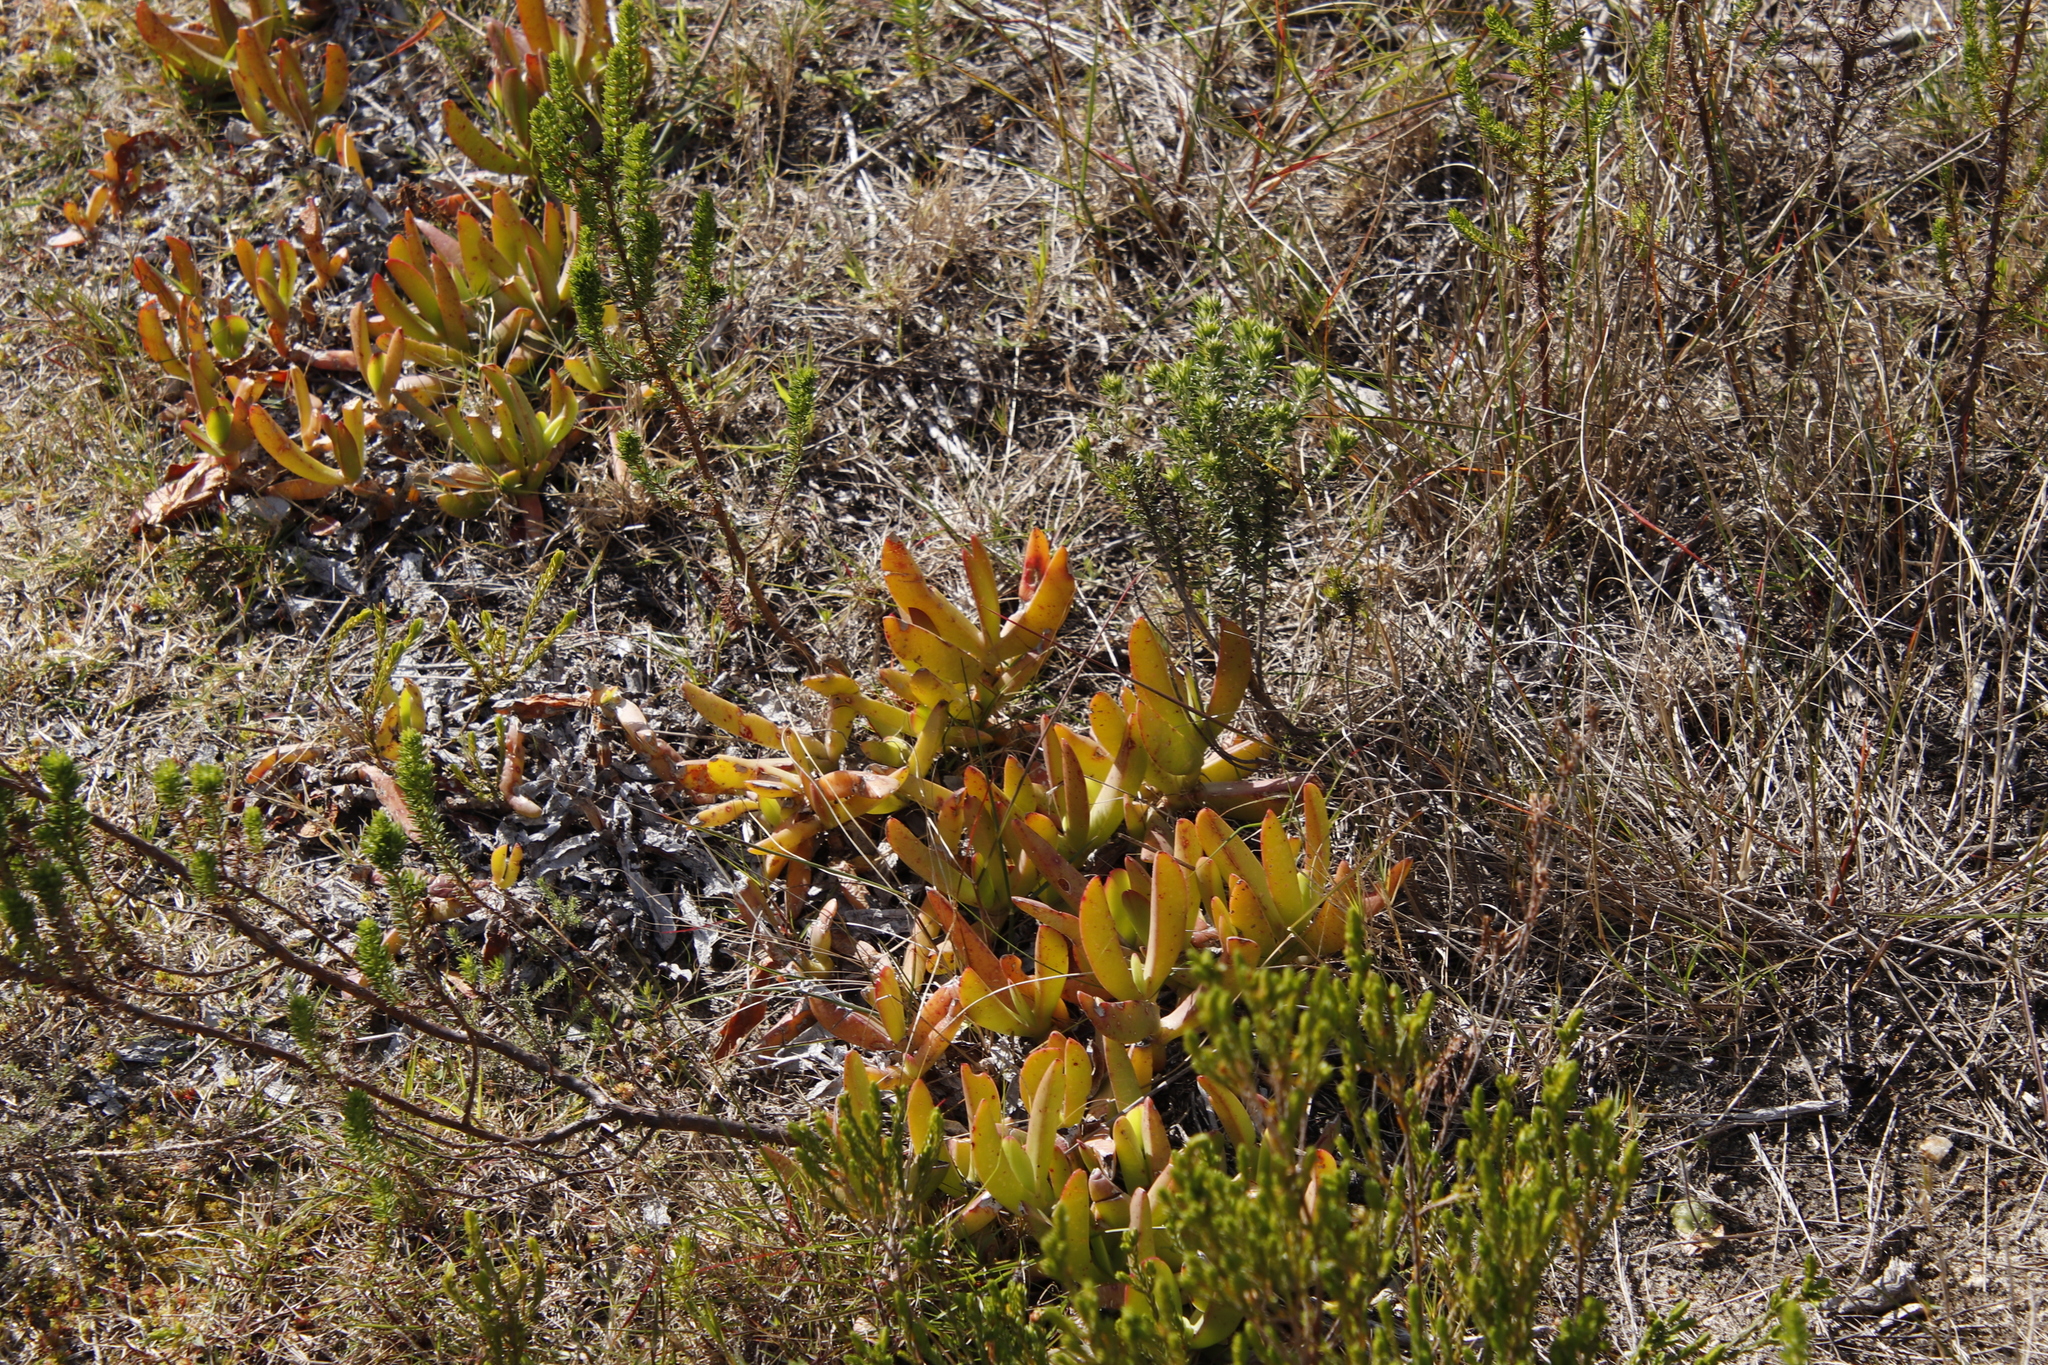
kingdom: Plantae
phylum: Tracheophyta
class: Magnoliopsida
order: Caryophyllales
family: Aizoaceae
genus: Carpobrotus
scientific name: Carpobrotus acinaciformis
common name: Sally-my-handsome
